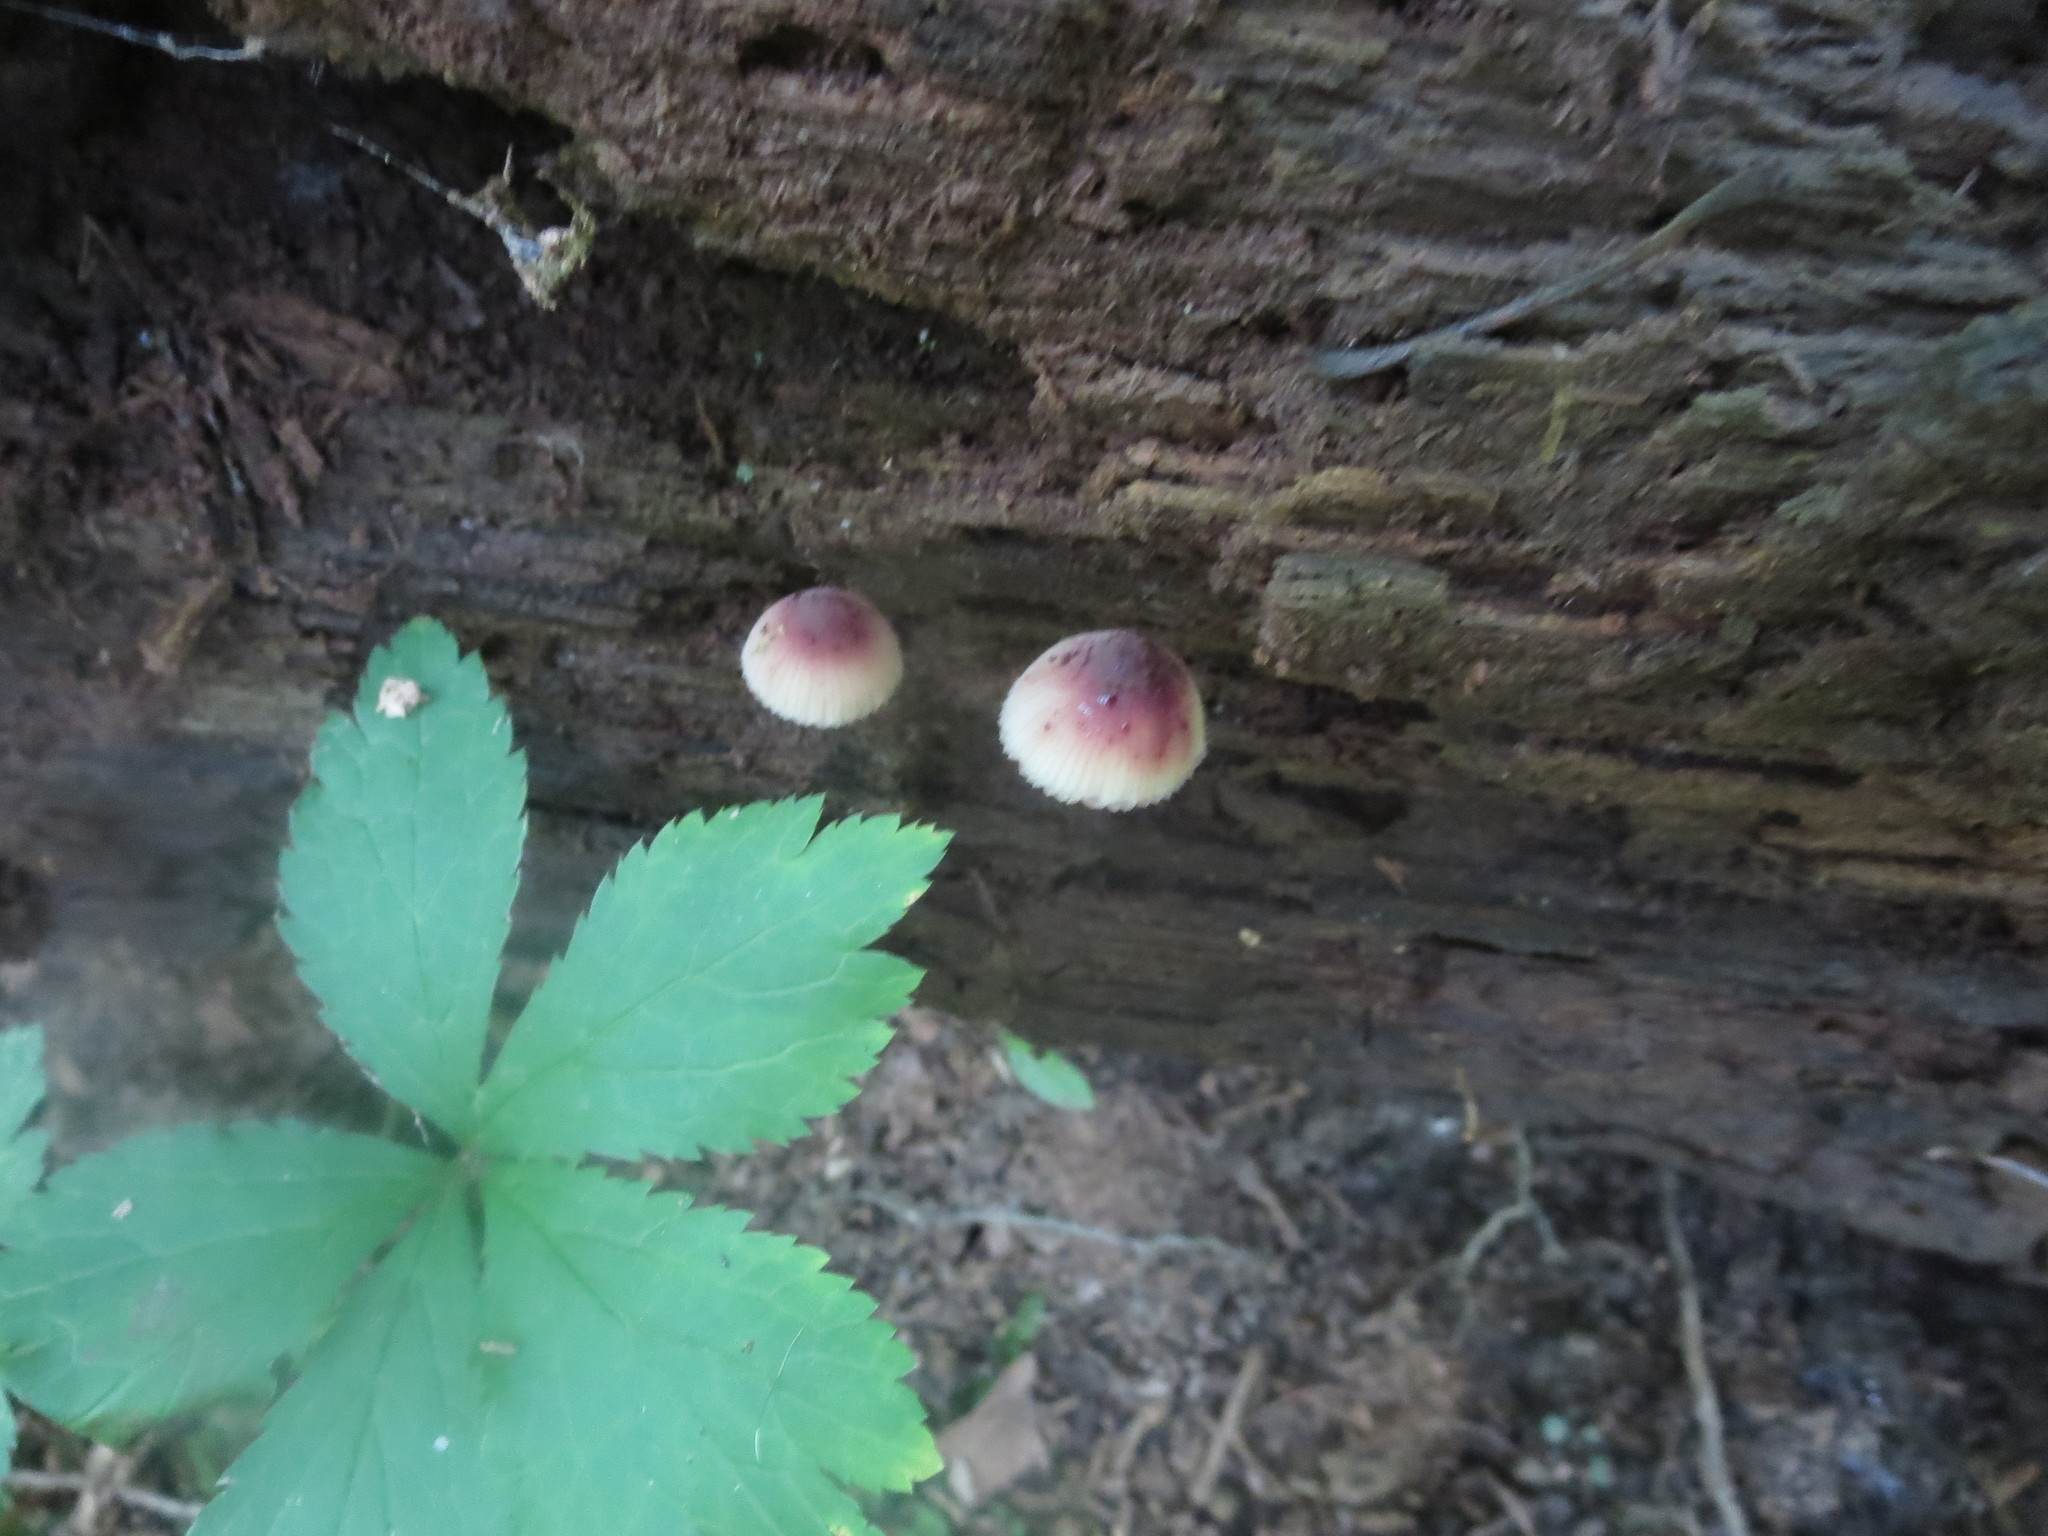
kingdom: Fungi
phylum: Basidiomycota
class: Agaricomycetes
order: Agaricales
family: Mycenaceae
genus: Mycena
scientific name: Mycena haematopus
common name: Burgundydrop bonnet
